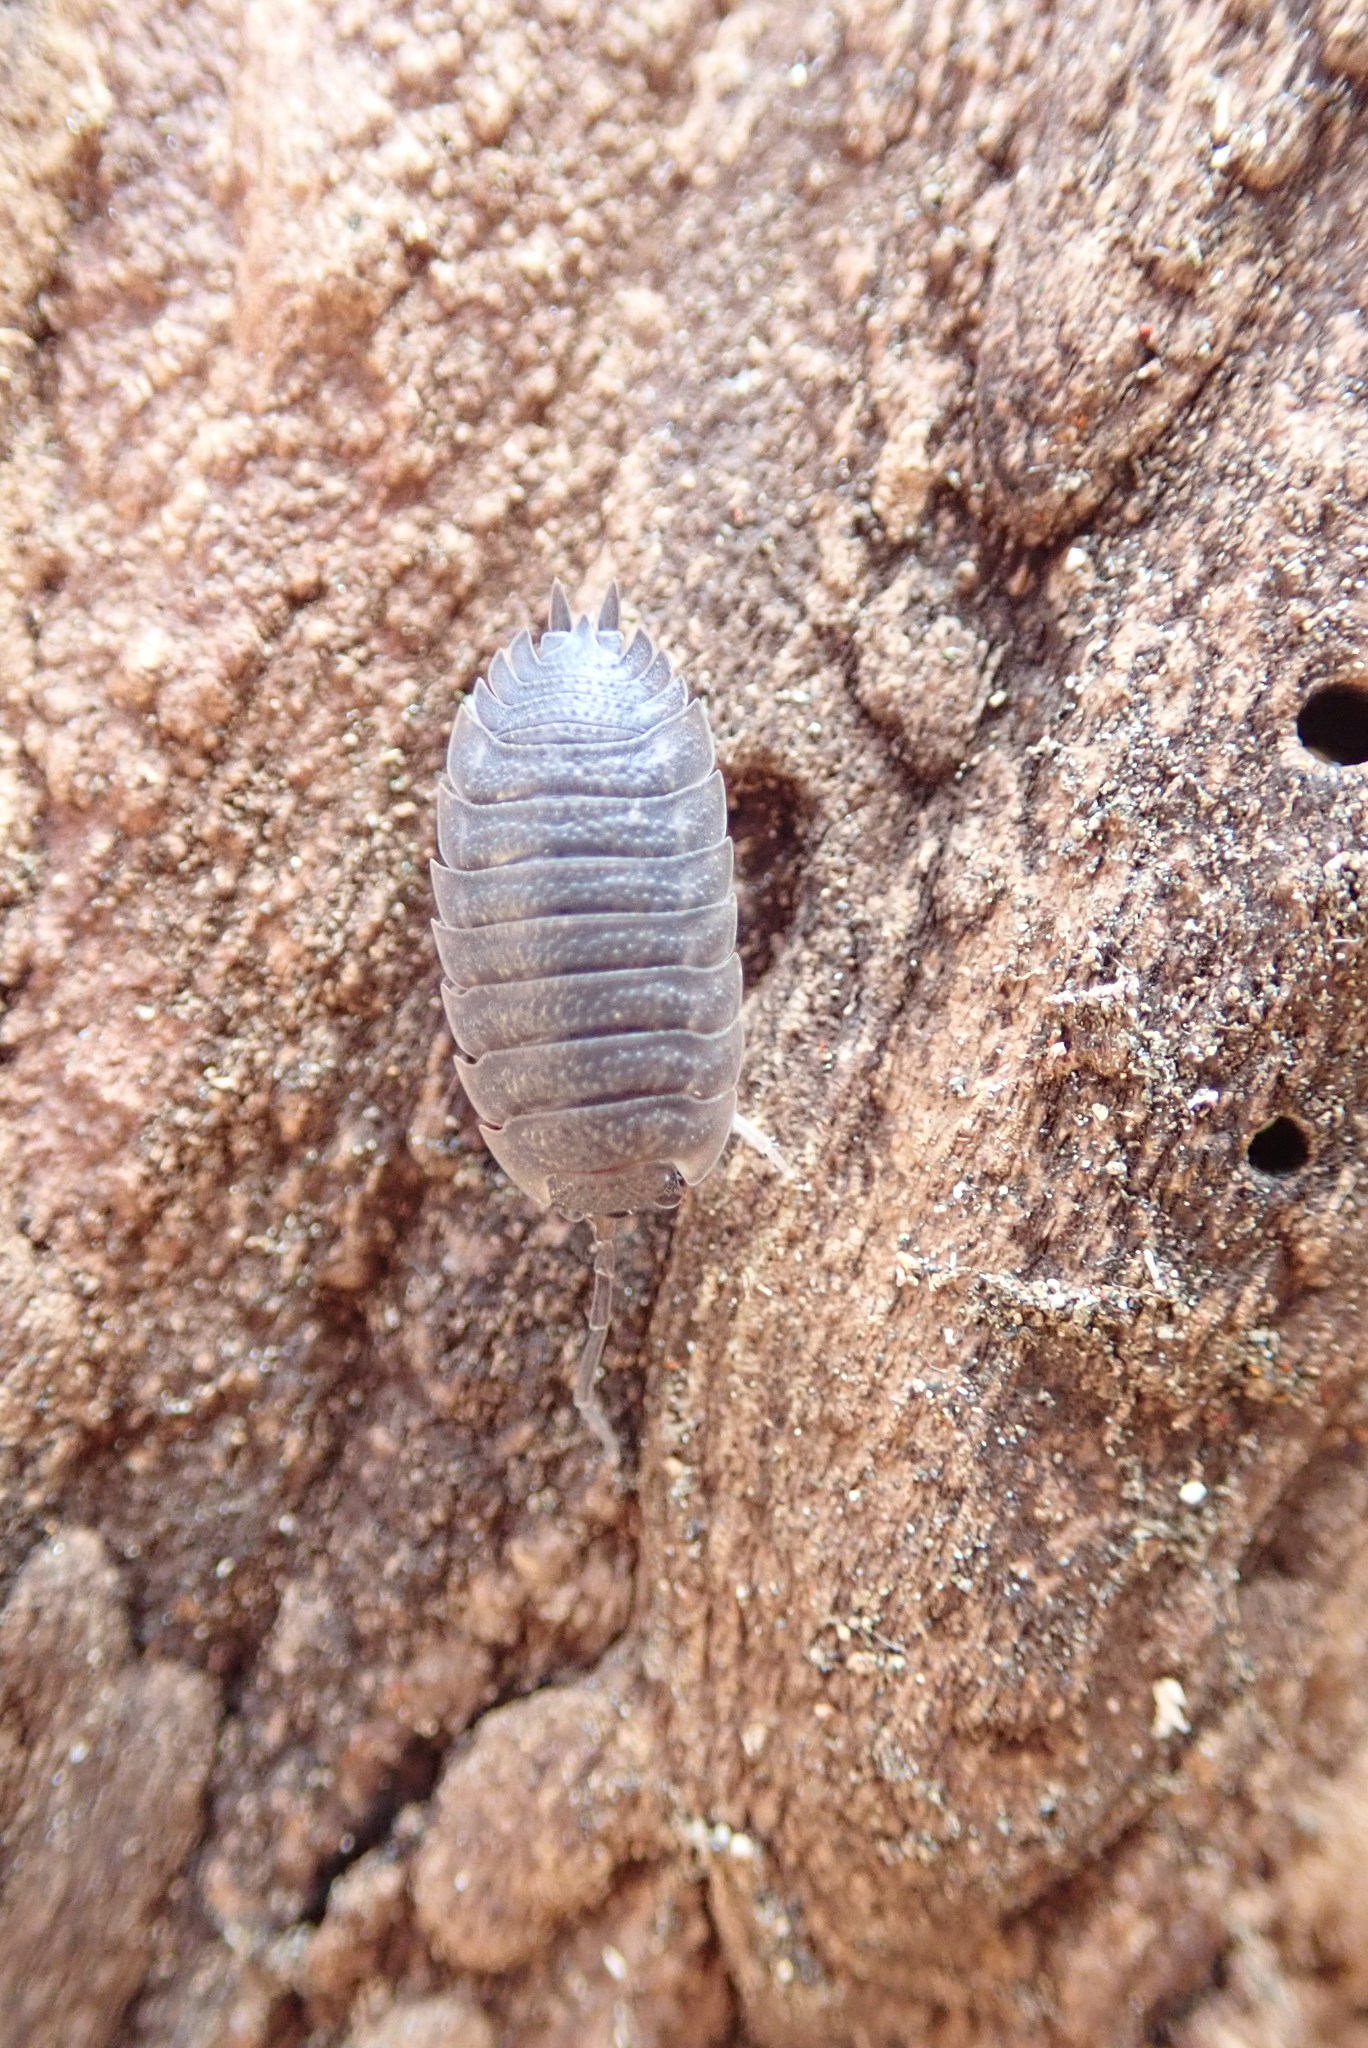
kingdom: Animalia
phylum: Arthropoda
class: Malacostraca
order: Isopoda
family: Porcellionidae
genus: Porcellio
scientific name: Porcellio scaber
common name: Common rough woodlouse
